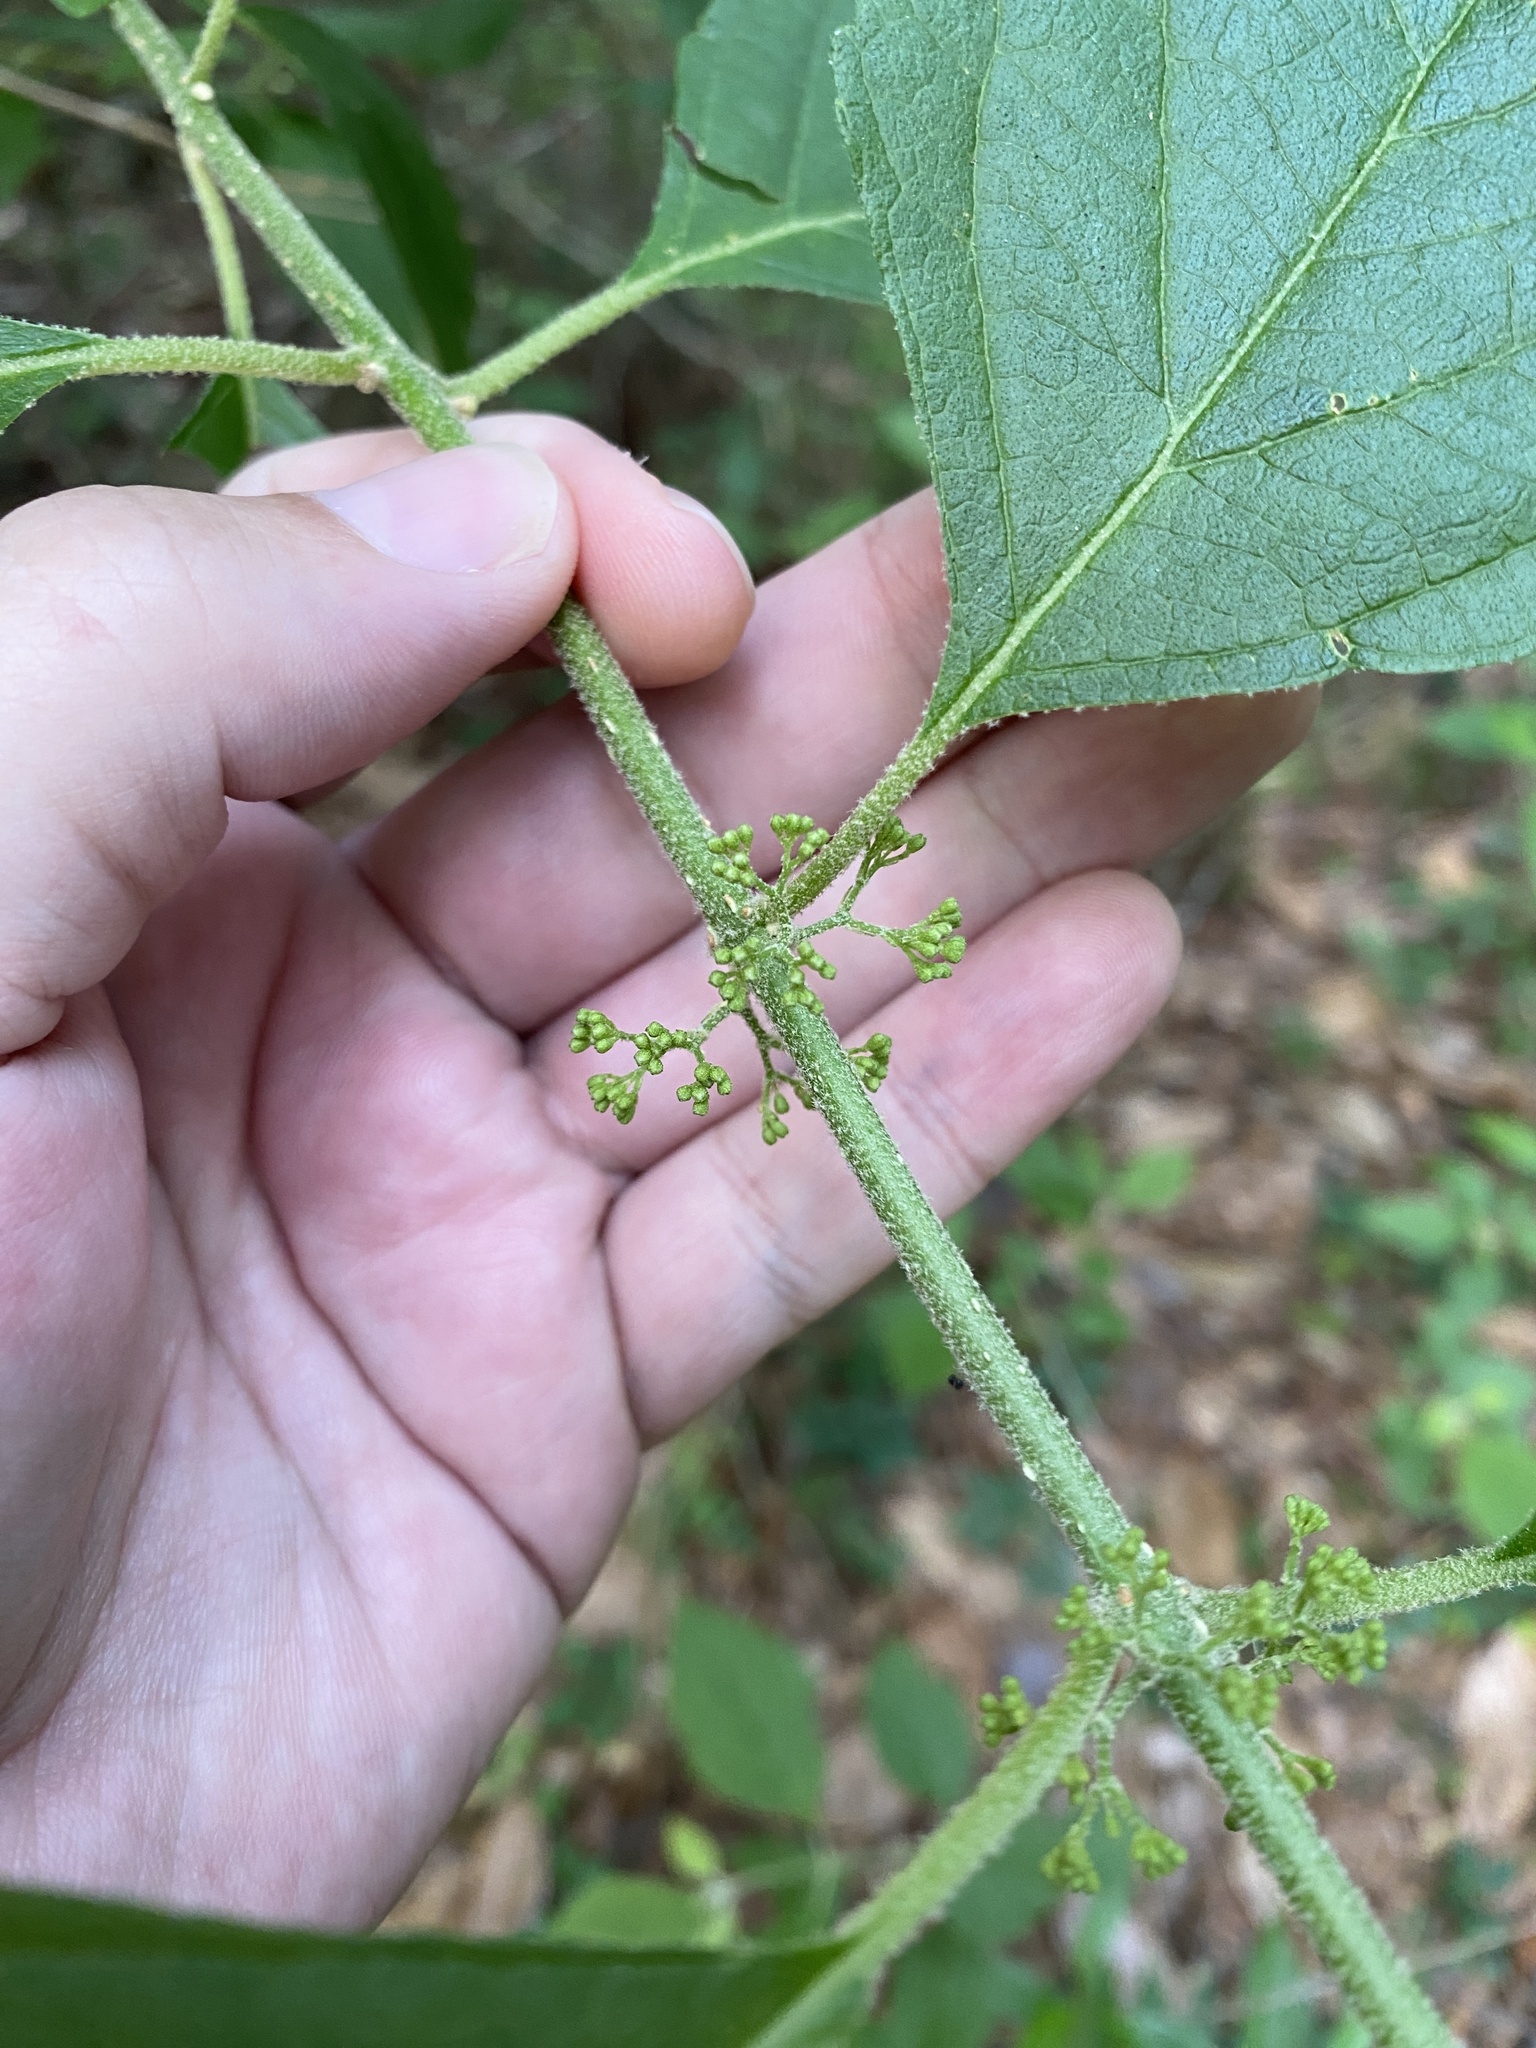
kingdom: Plantae
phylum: Tracheophyta
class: Magnoliopsida
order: Lamiales
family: Lamiaceae
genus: Callicarpa
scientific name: Callicarpa americana
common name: American beautyberry
